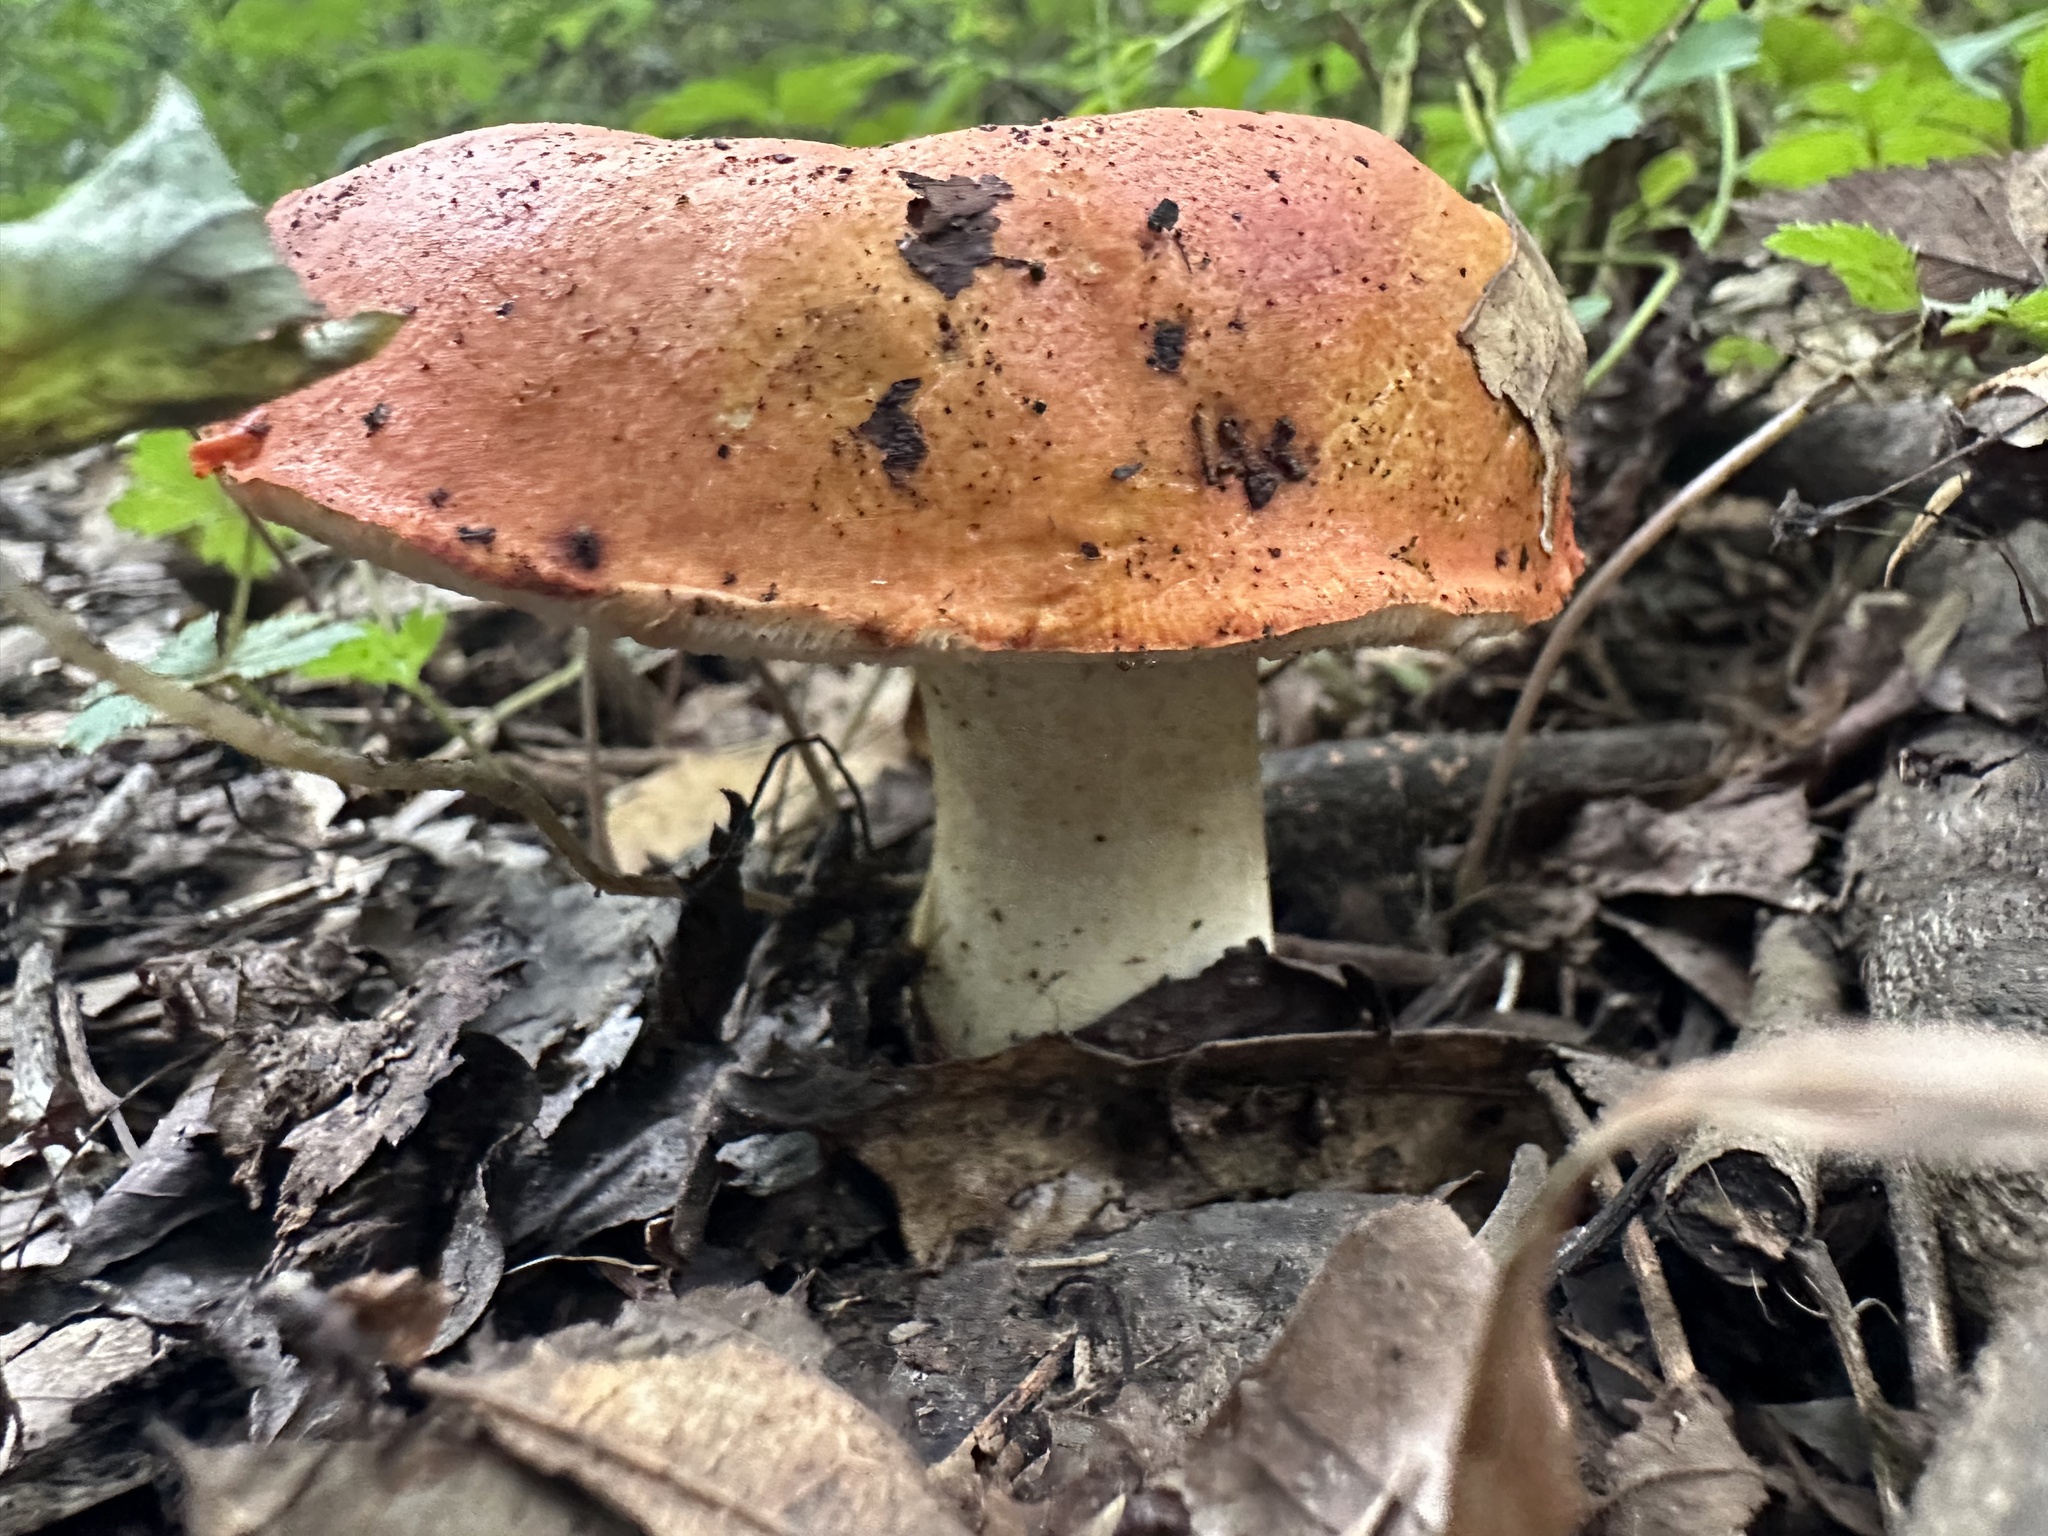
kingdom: Fungi
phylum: Basidiomycota
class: Agaricomycetes
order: Boletales
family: Boletaceae
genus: Tylopilus
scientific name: Tylopilus balloui
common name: Burnt-orange bolete
